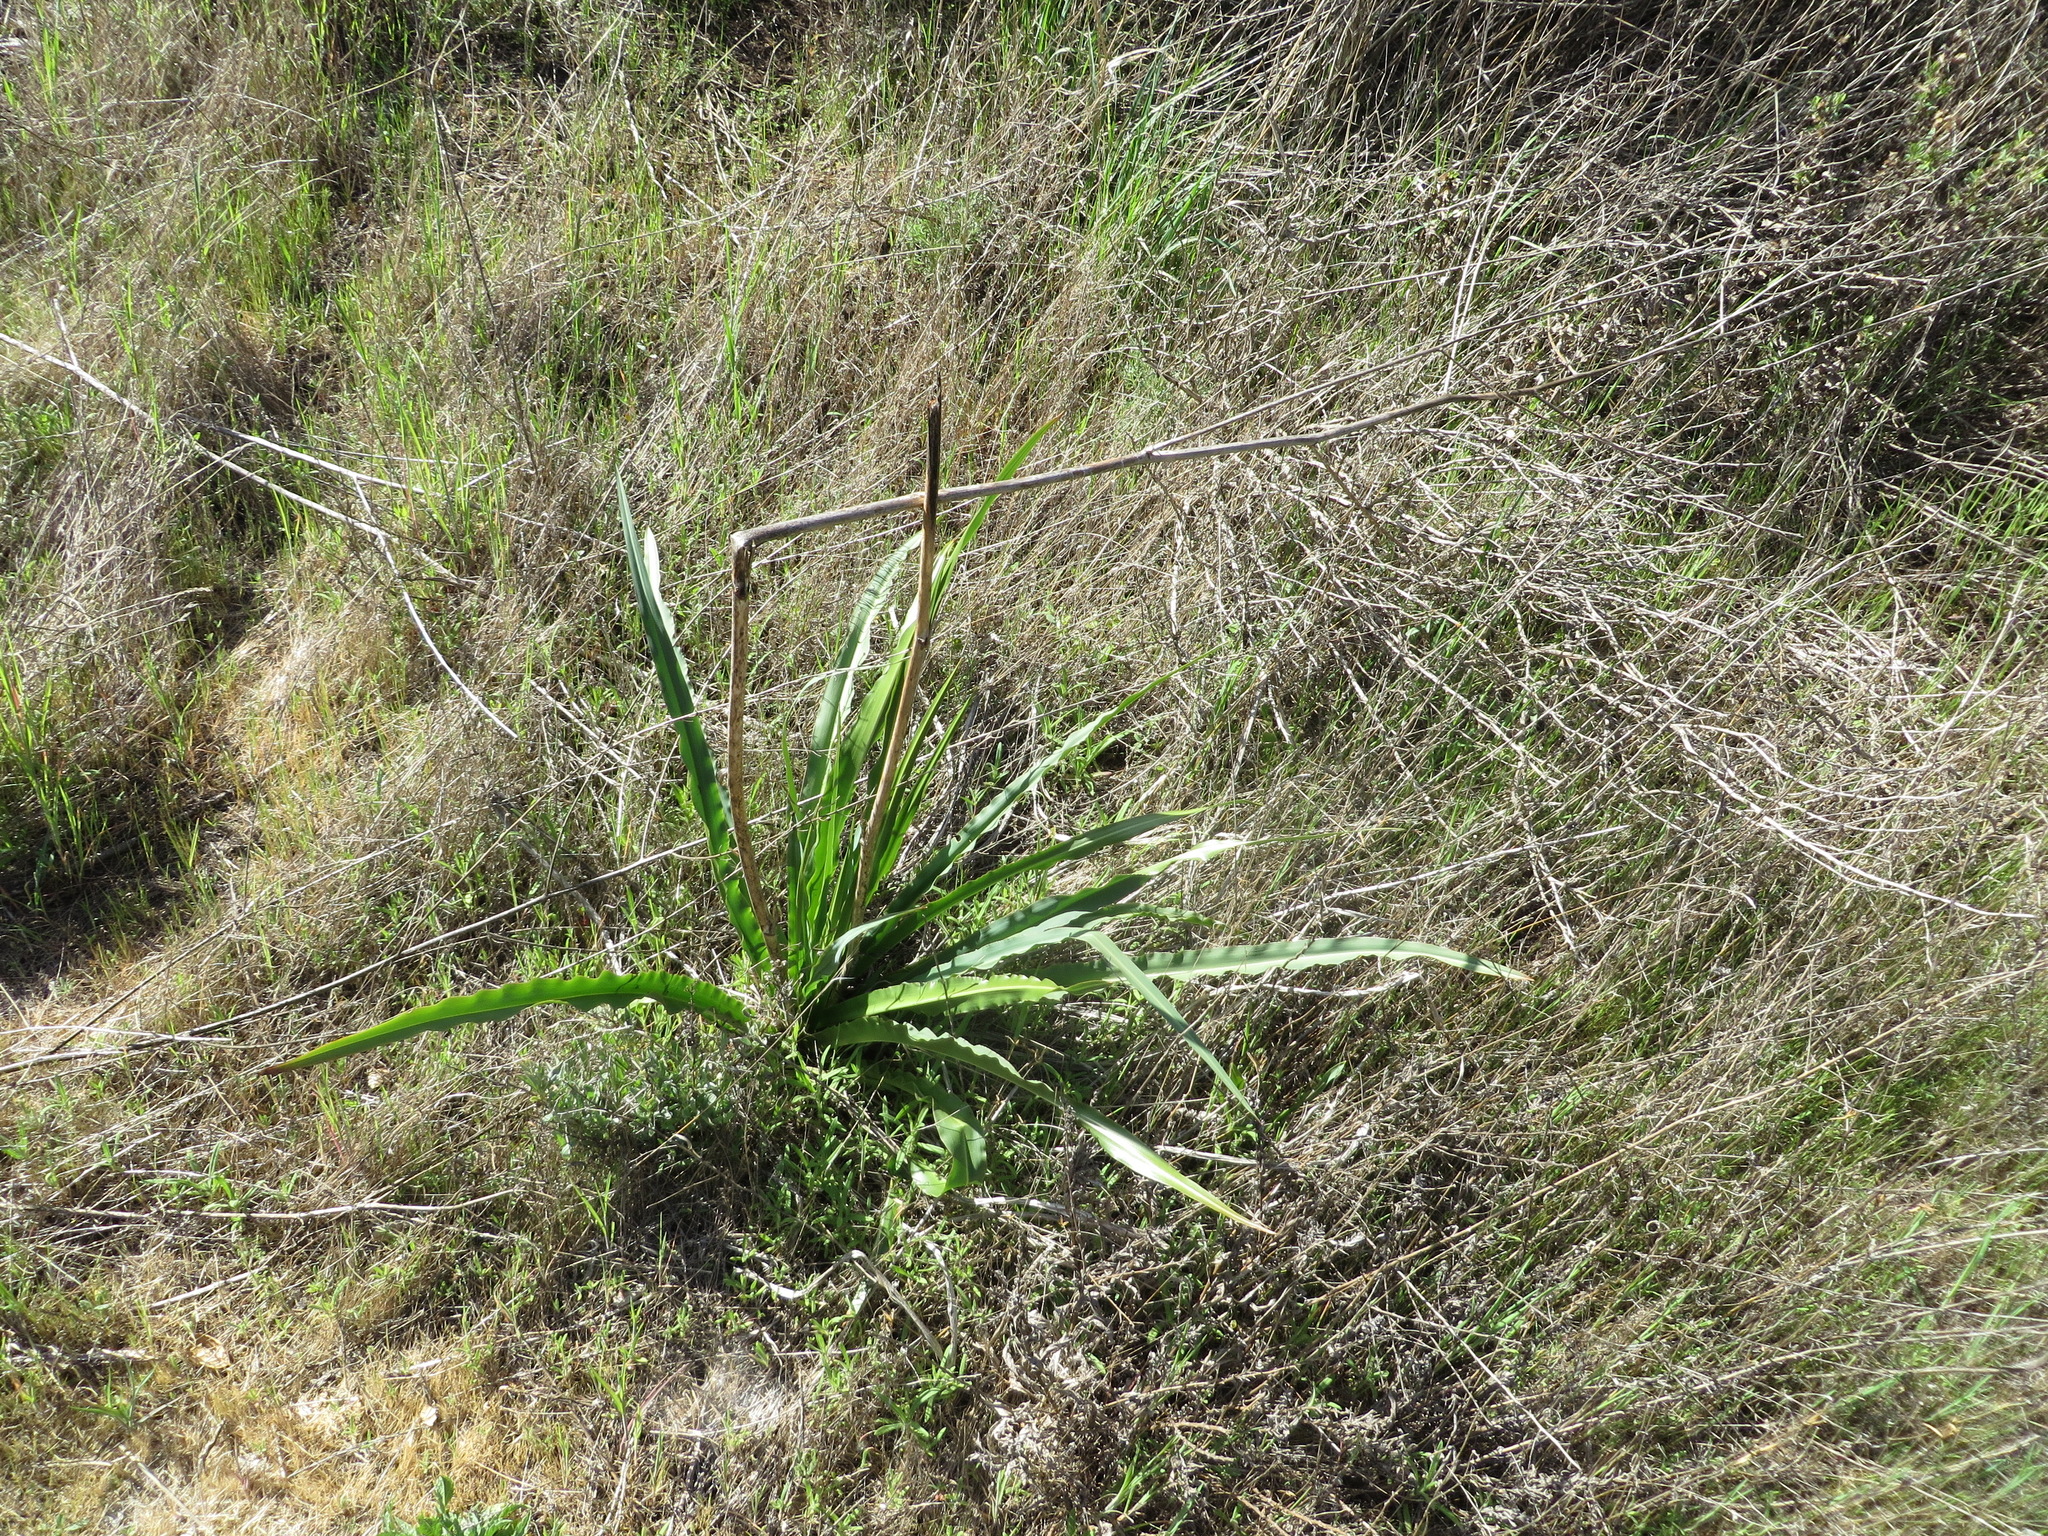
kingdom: Plantae
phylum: Tracheophyta
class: Liliopsida
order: Asparagales
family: Asparagaceae
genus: Chlorogalum
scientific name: Chlorogalum pomeridianum
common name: Amole
